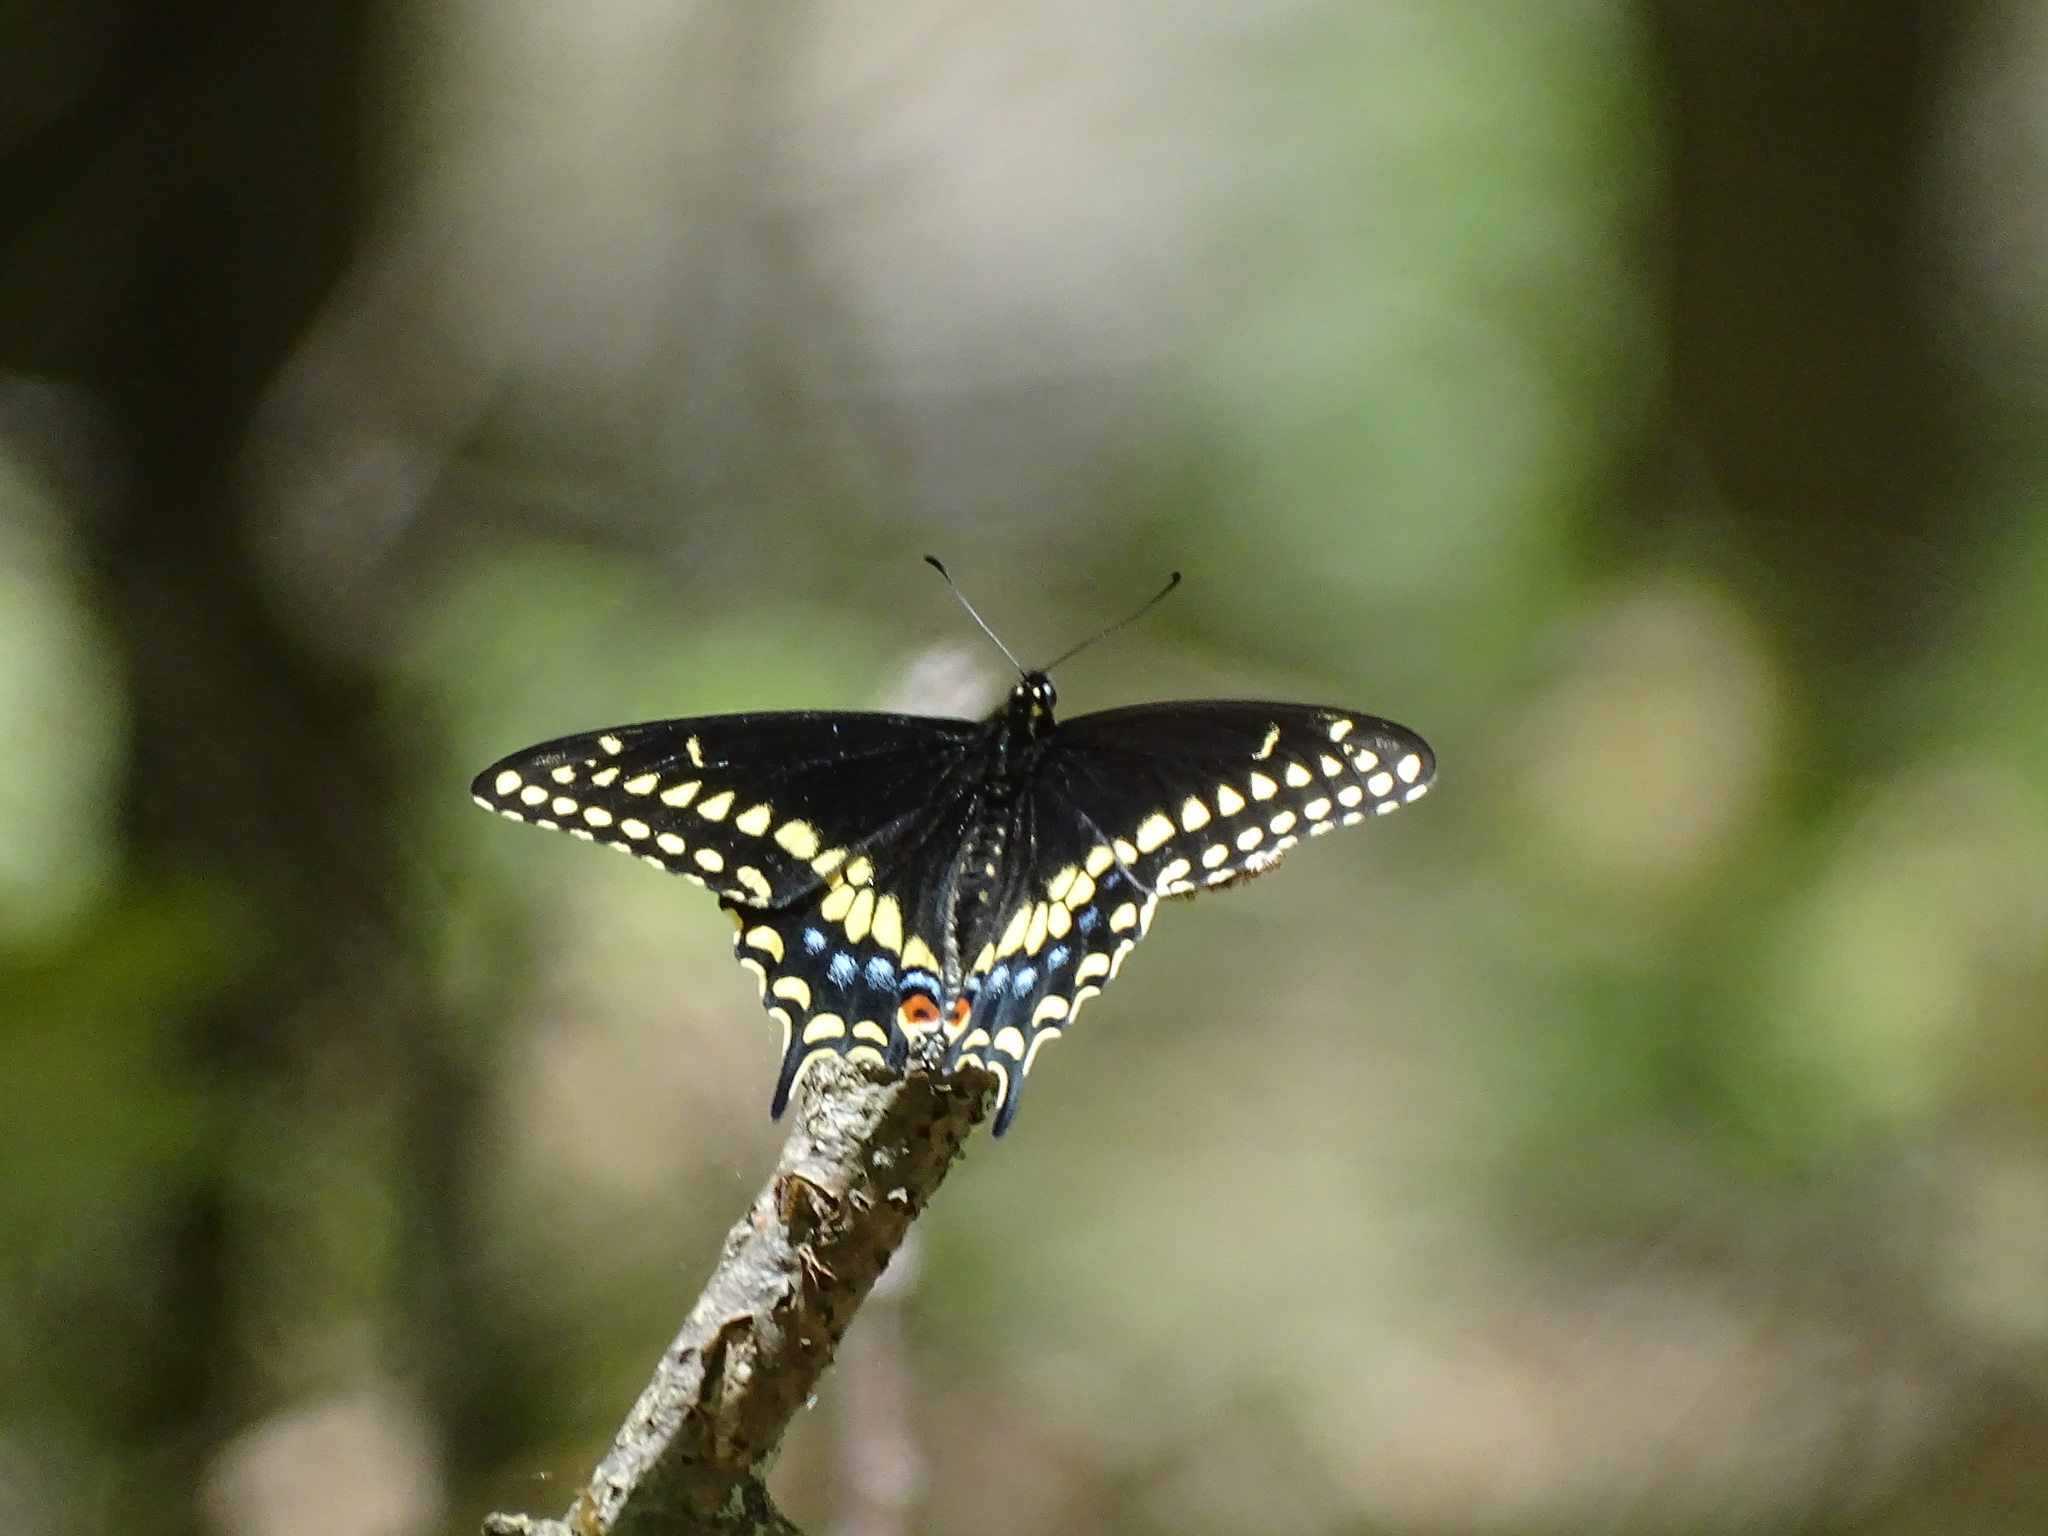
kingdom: Animalia
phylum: Arthropoda
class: Insecta
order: Lepidoptera
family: Papilionidae
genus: Papilio
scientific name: Papilio polyxenes
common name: Black swallowtail
